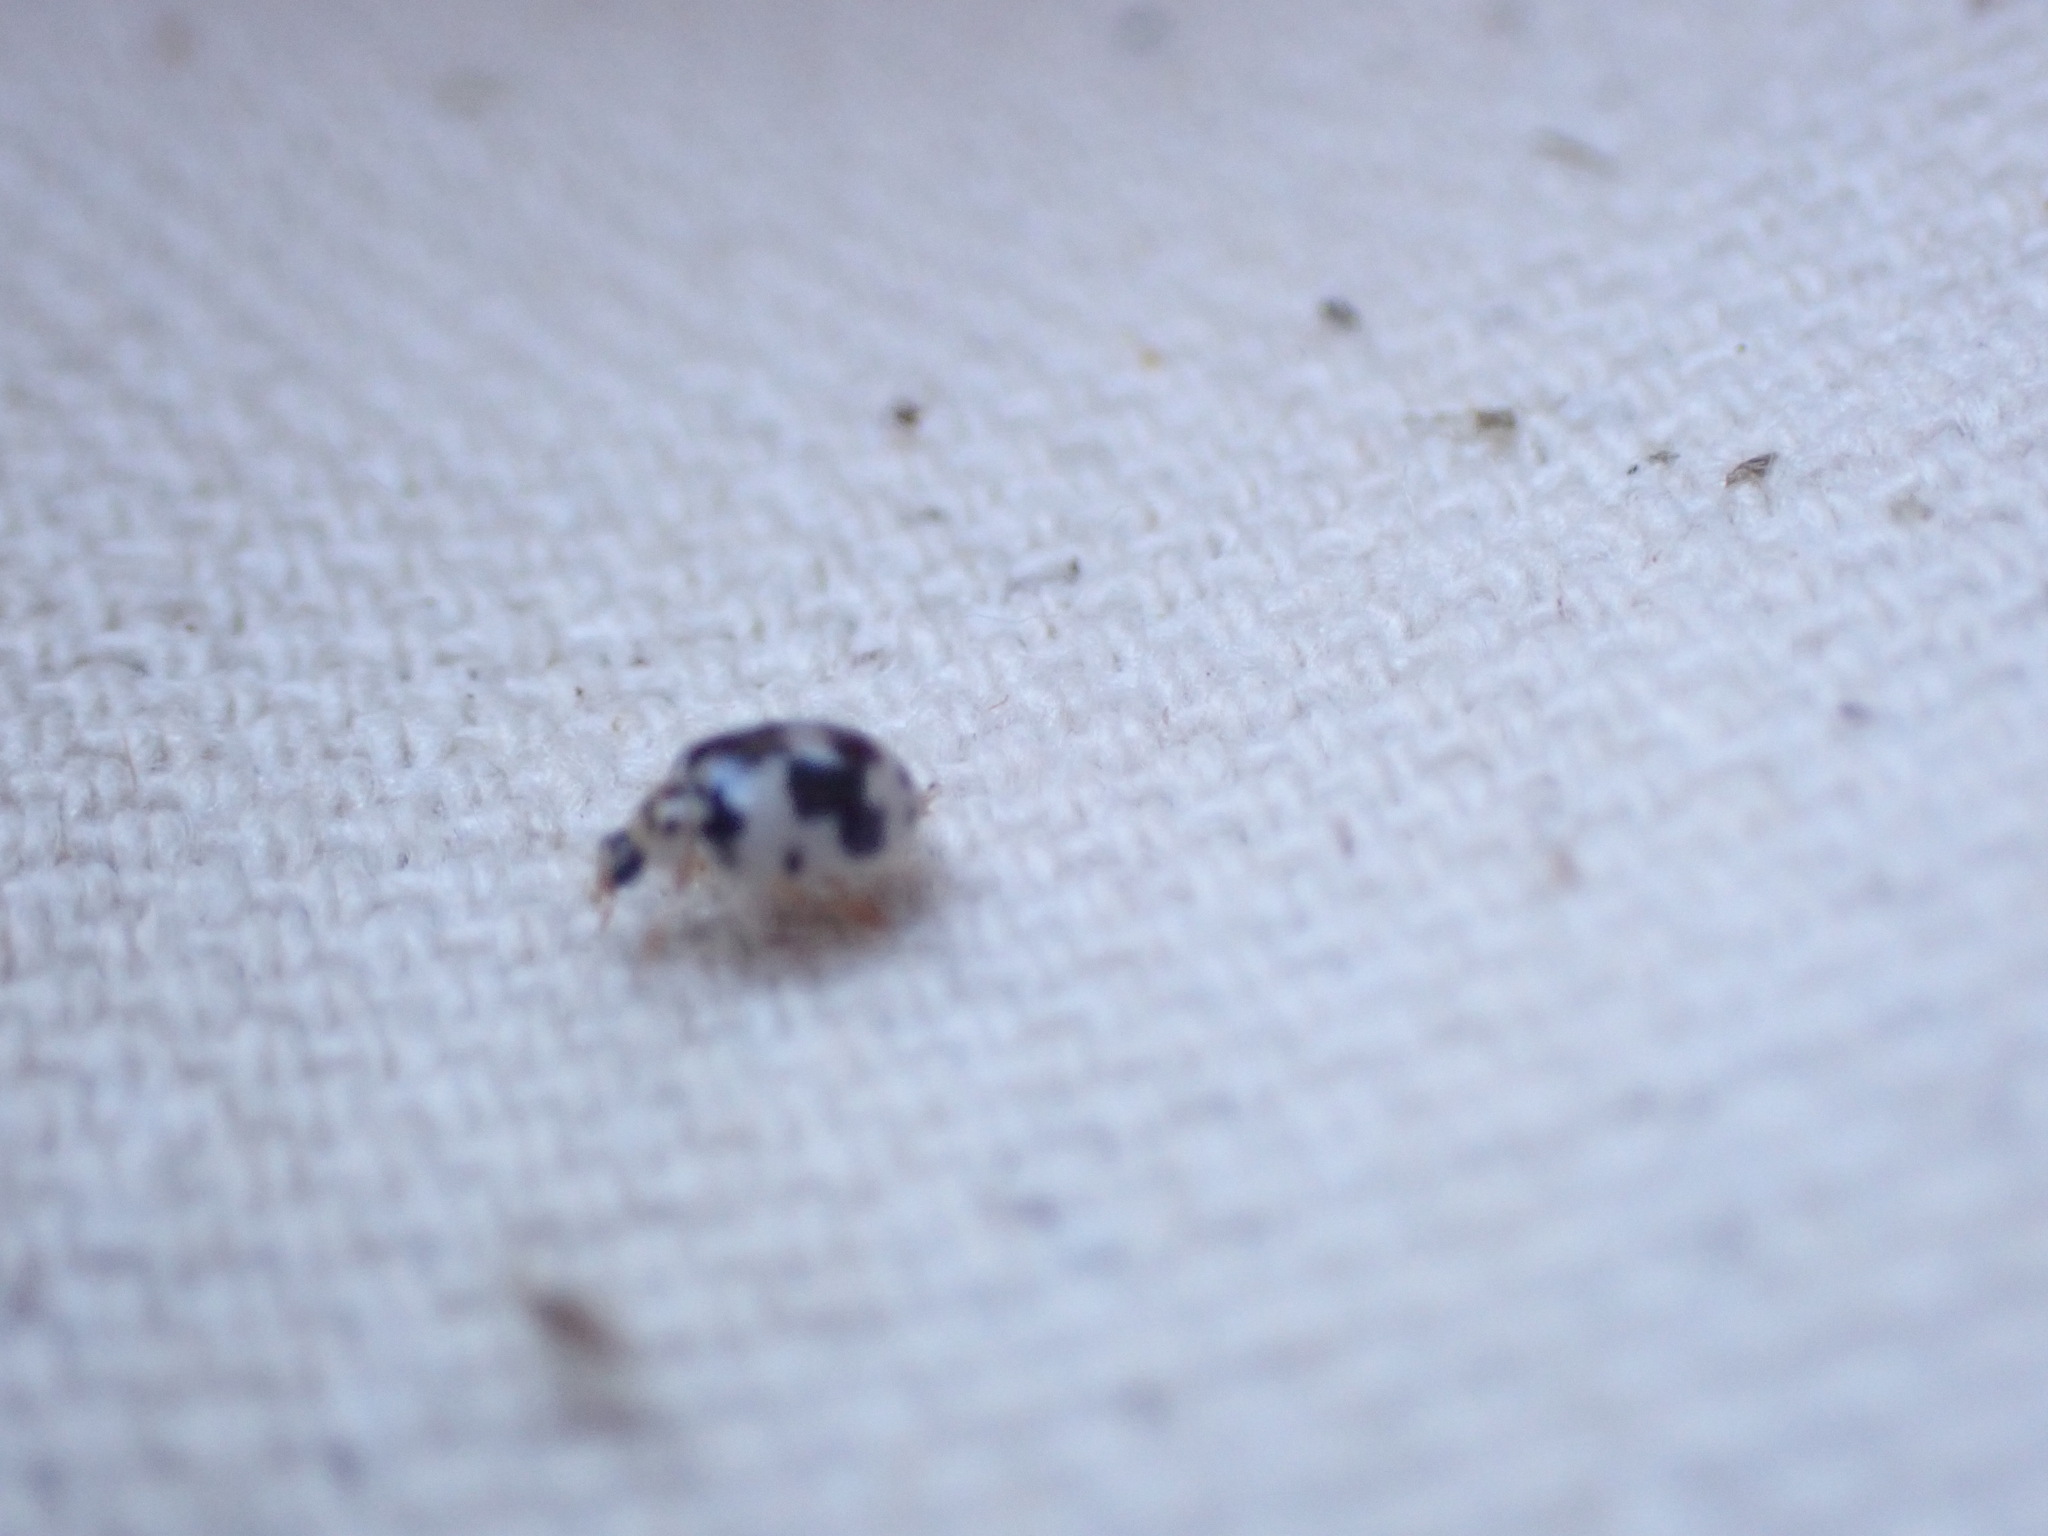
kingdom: Animalia
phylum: Arthropoda
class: Insecta
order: Coleoptera
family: Coccinellidae
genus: Psyllobora
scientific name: Psyllobora borealis
